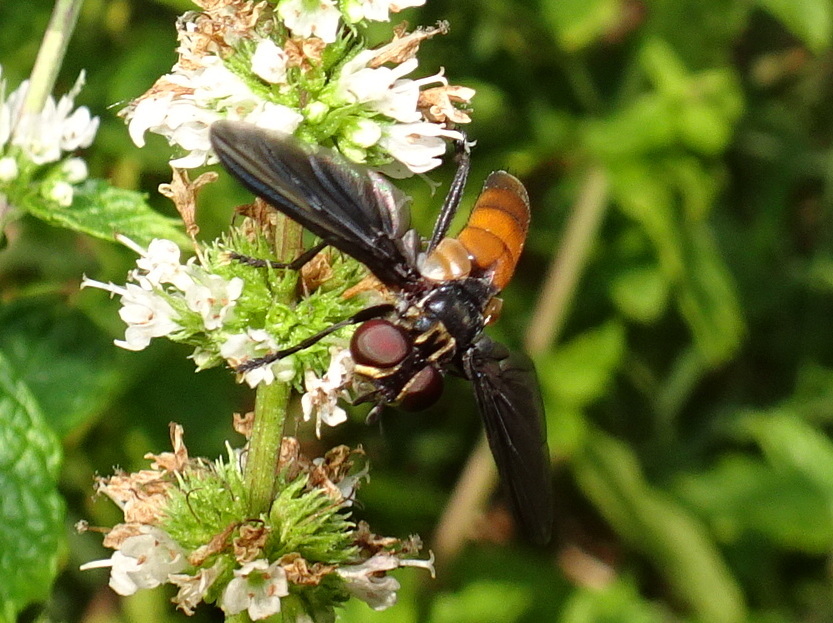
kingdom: Animalia
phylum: Arthropoda
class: Insecta
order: Diptera
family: Tachinidae
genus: Trichopoda
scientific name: Trichopoda pennipes
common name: Tachinid fly
